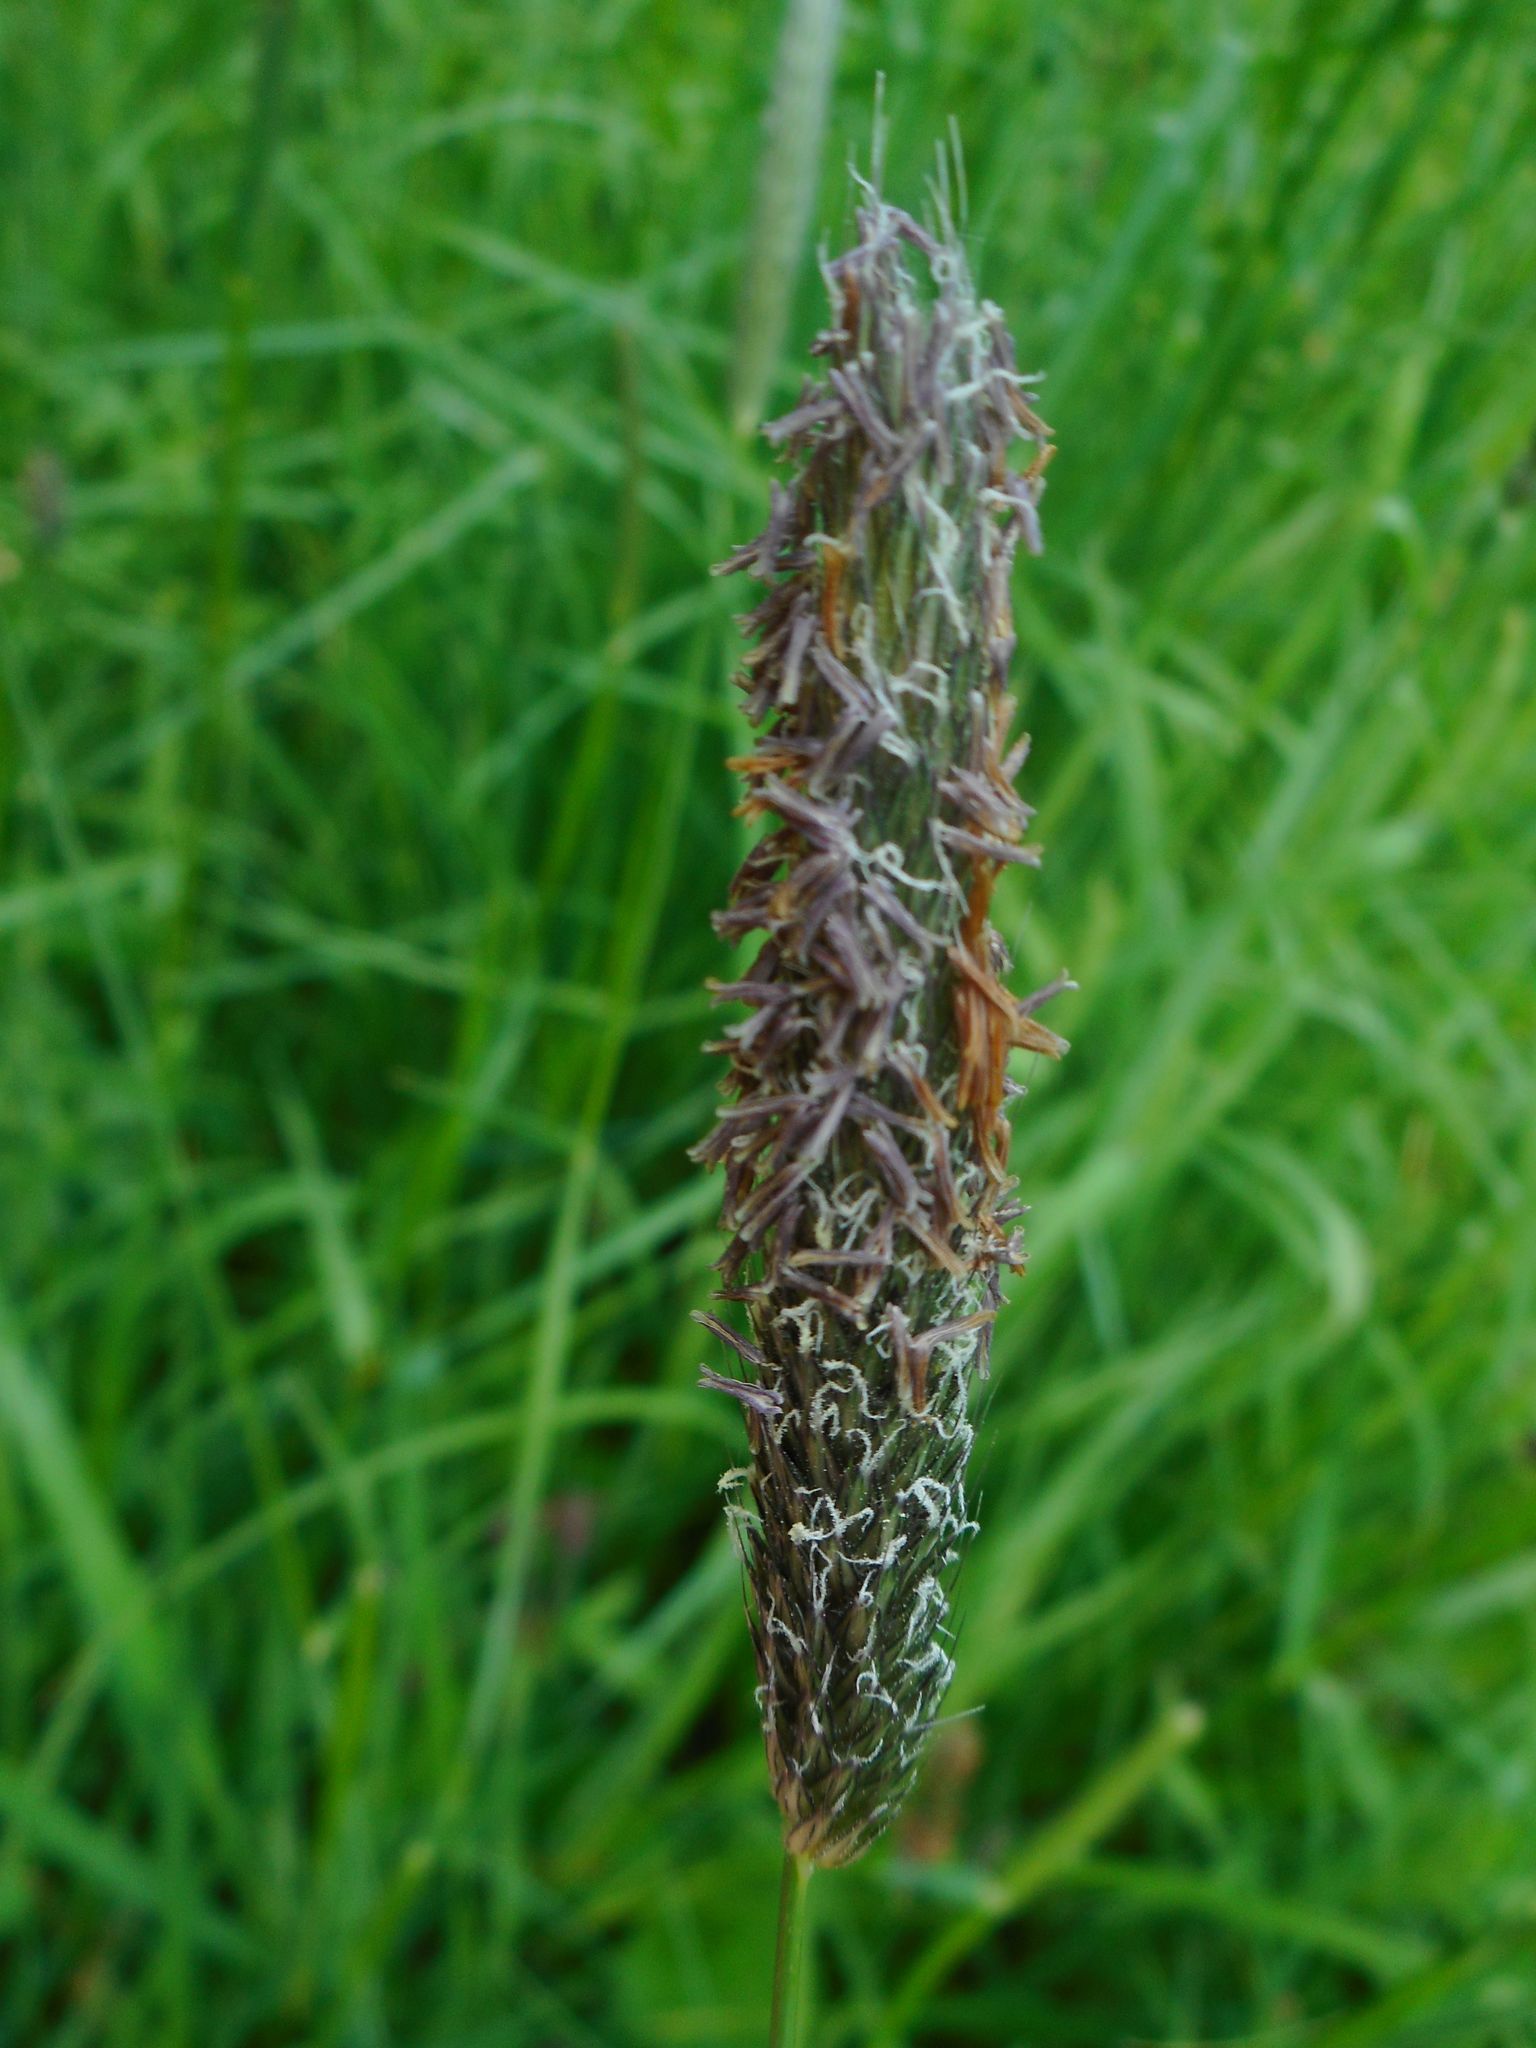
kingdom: Plantae
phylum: Tracheophyta
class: Liliopsida
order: Poales
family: Poaceae
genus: Alopecurus
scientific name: Alopecurus pratensis
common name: Meadow foxtail
